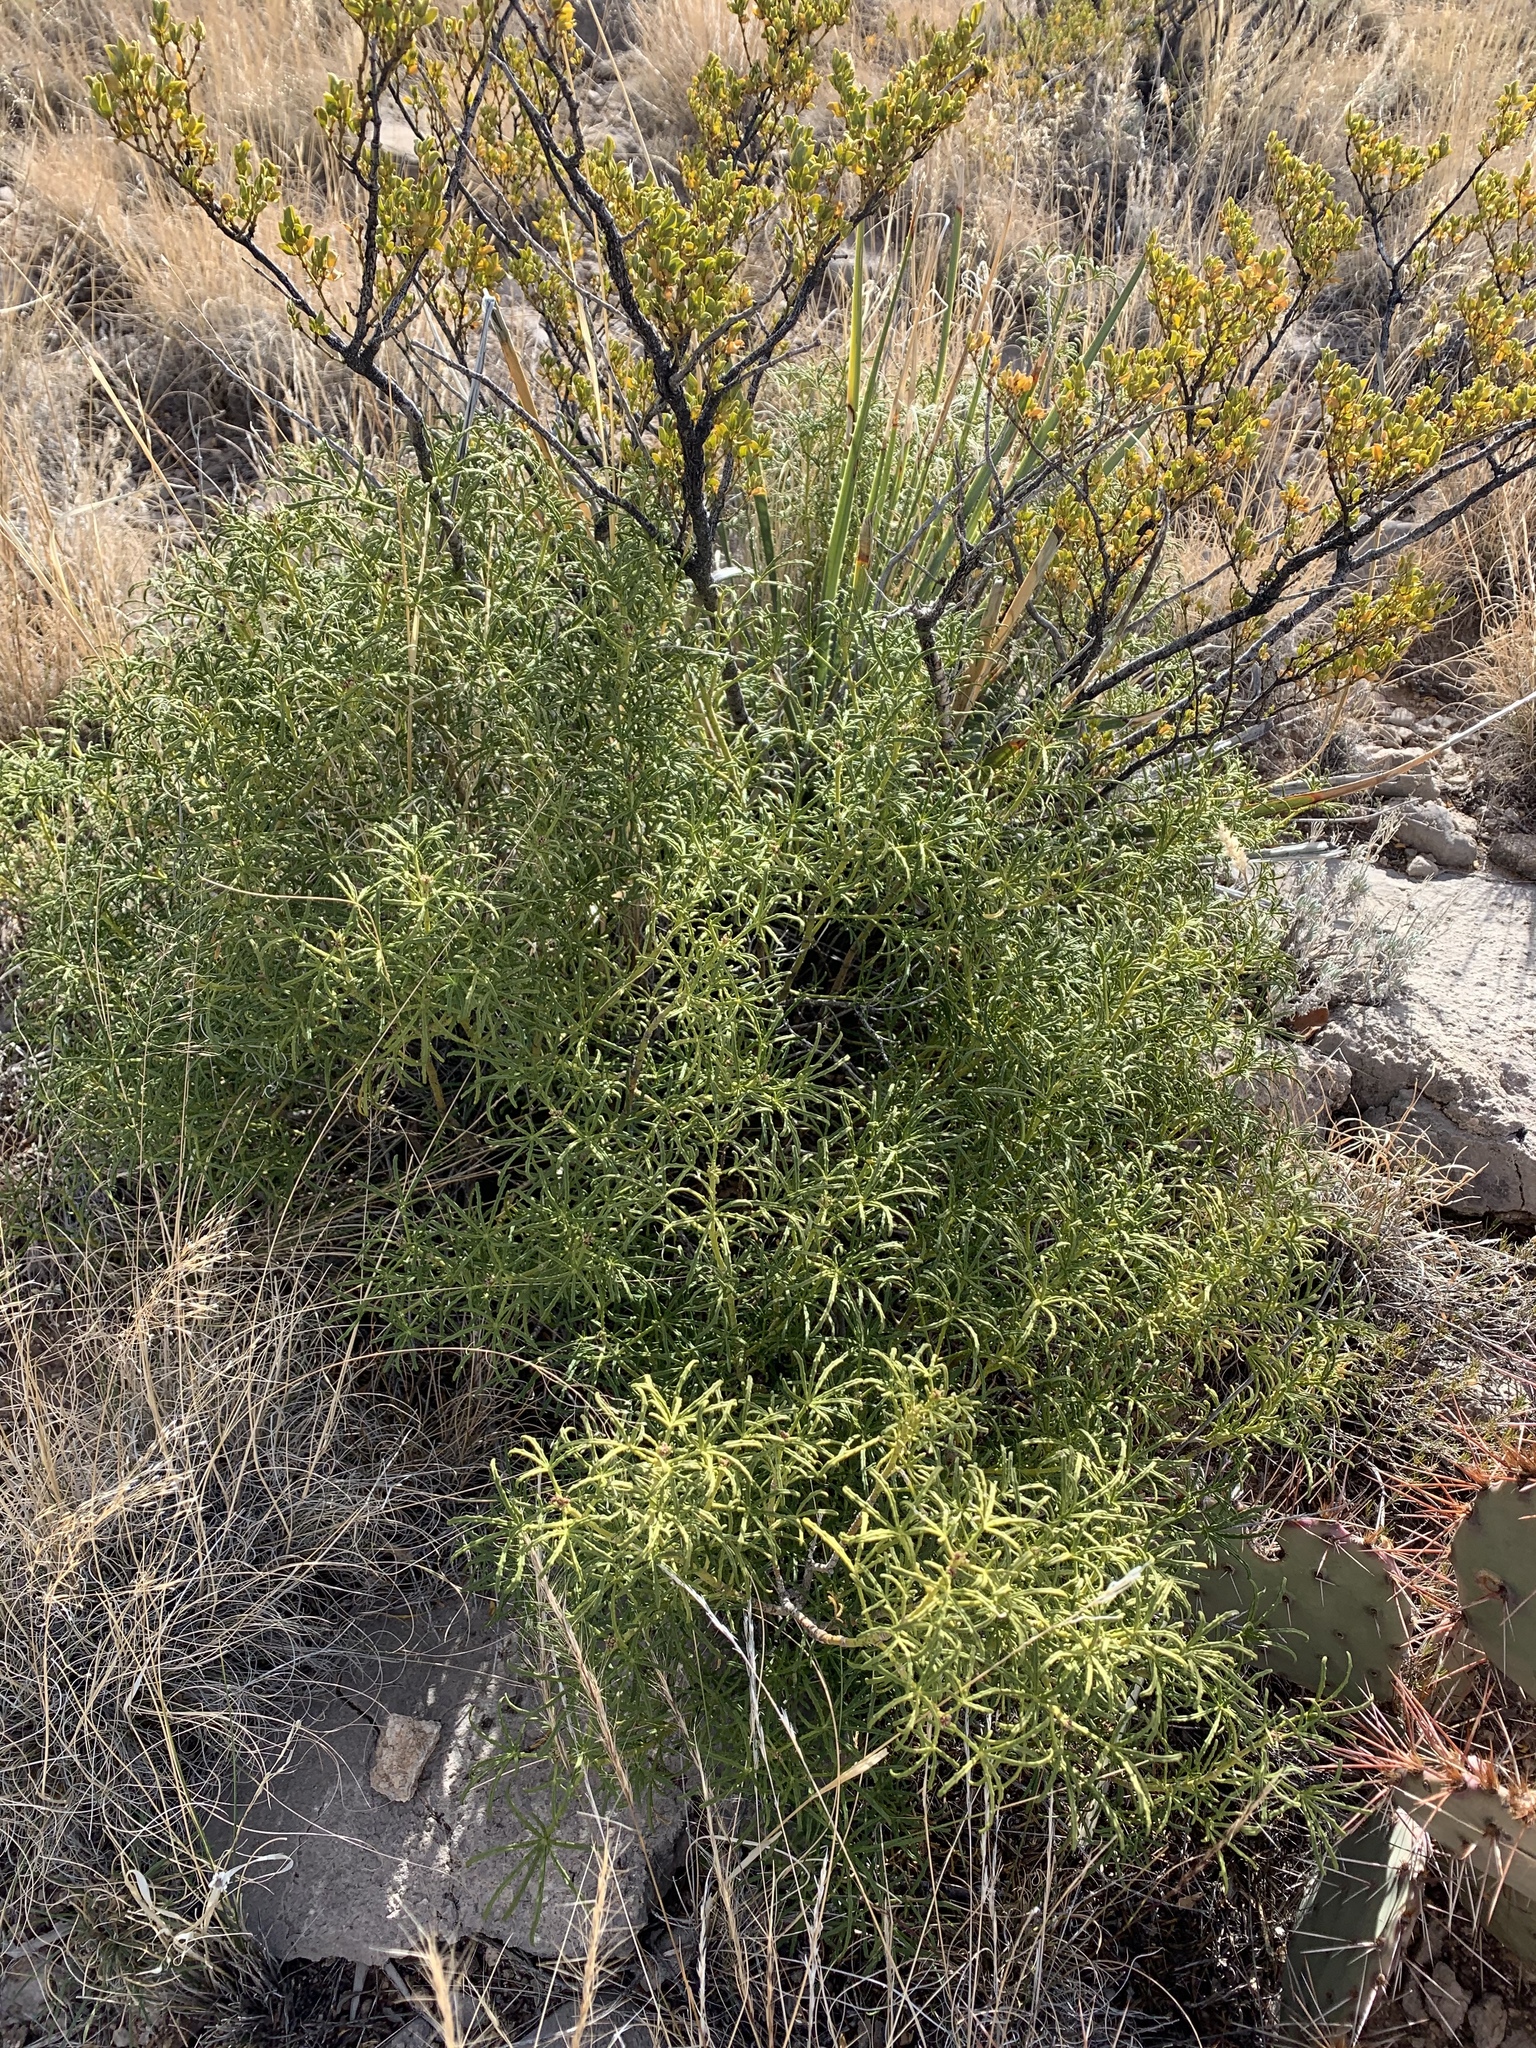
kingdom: Plantae
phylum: Tracheophyta
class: Magnoliopsida
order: Sapindales
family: Rutaceae
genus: Choisya
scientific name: Choisya dumosa
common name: Mexican-orange
